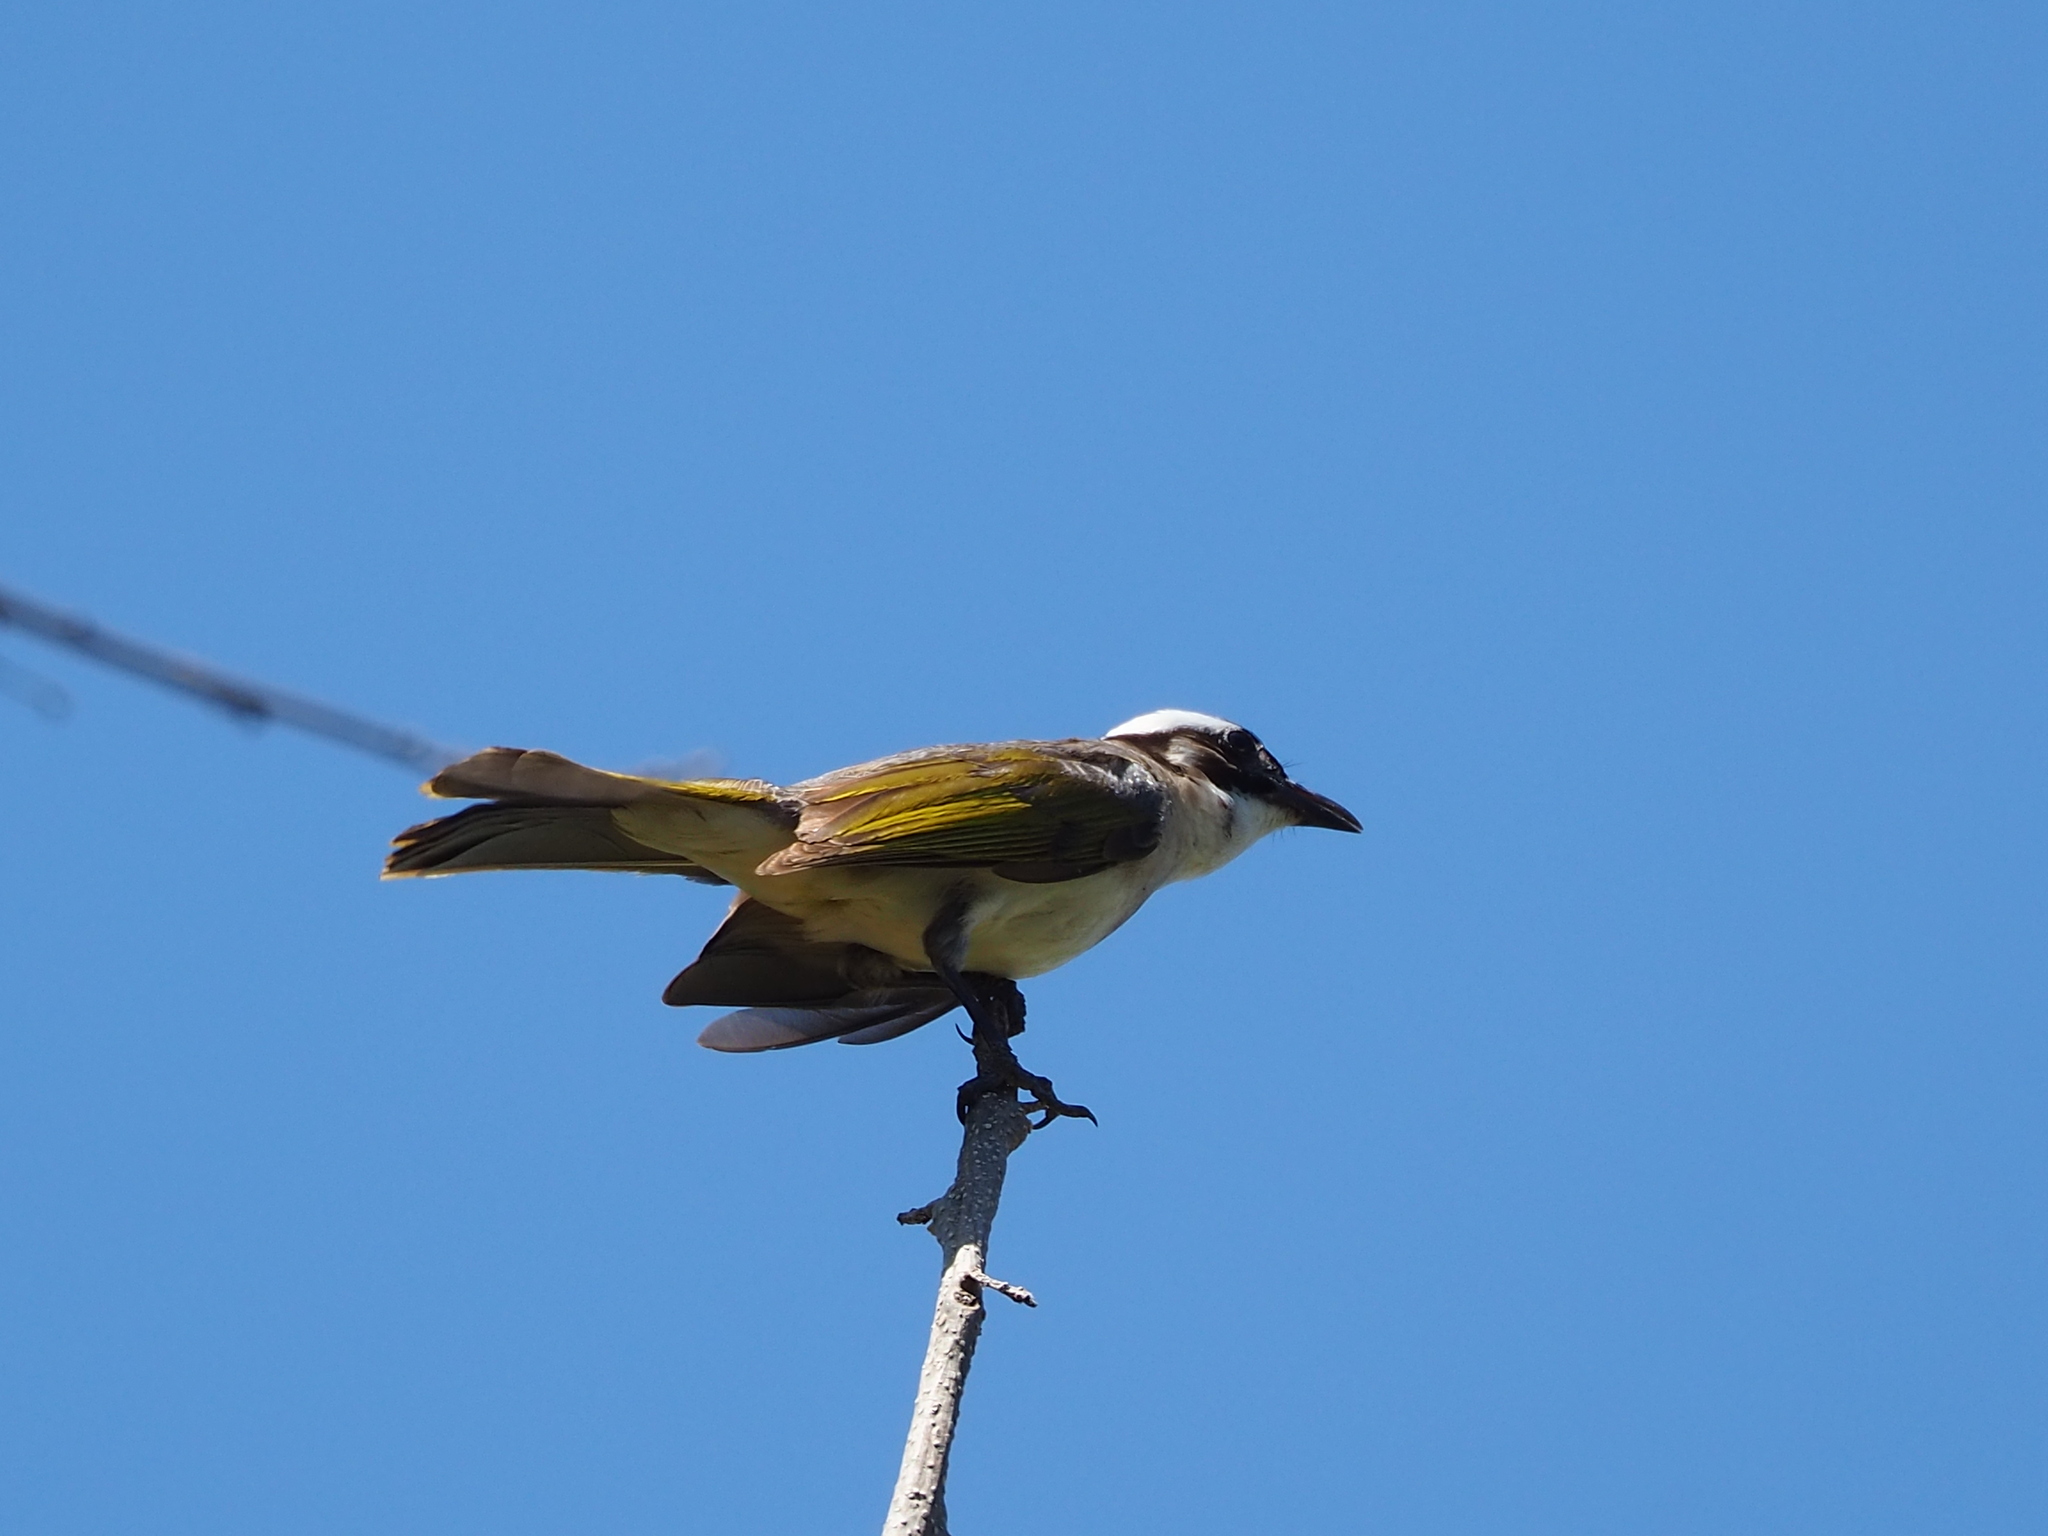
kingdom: Animalia
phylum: Chordata
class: Aves
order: Passeriformes
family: Pycnonotidae
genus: Pycnonotus
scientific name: Pycnonotus sinensis
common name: Light-vented bulbul
